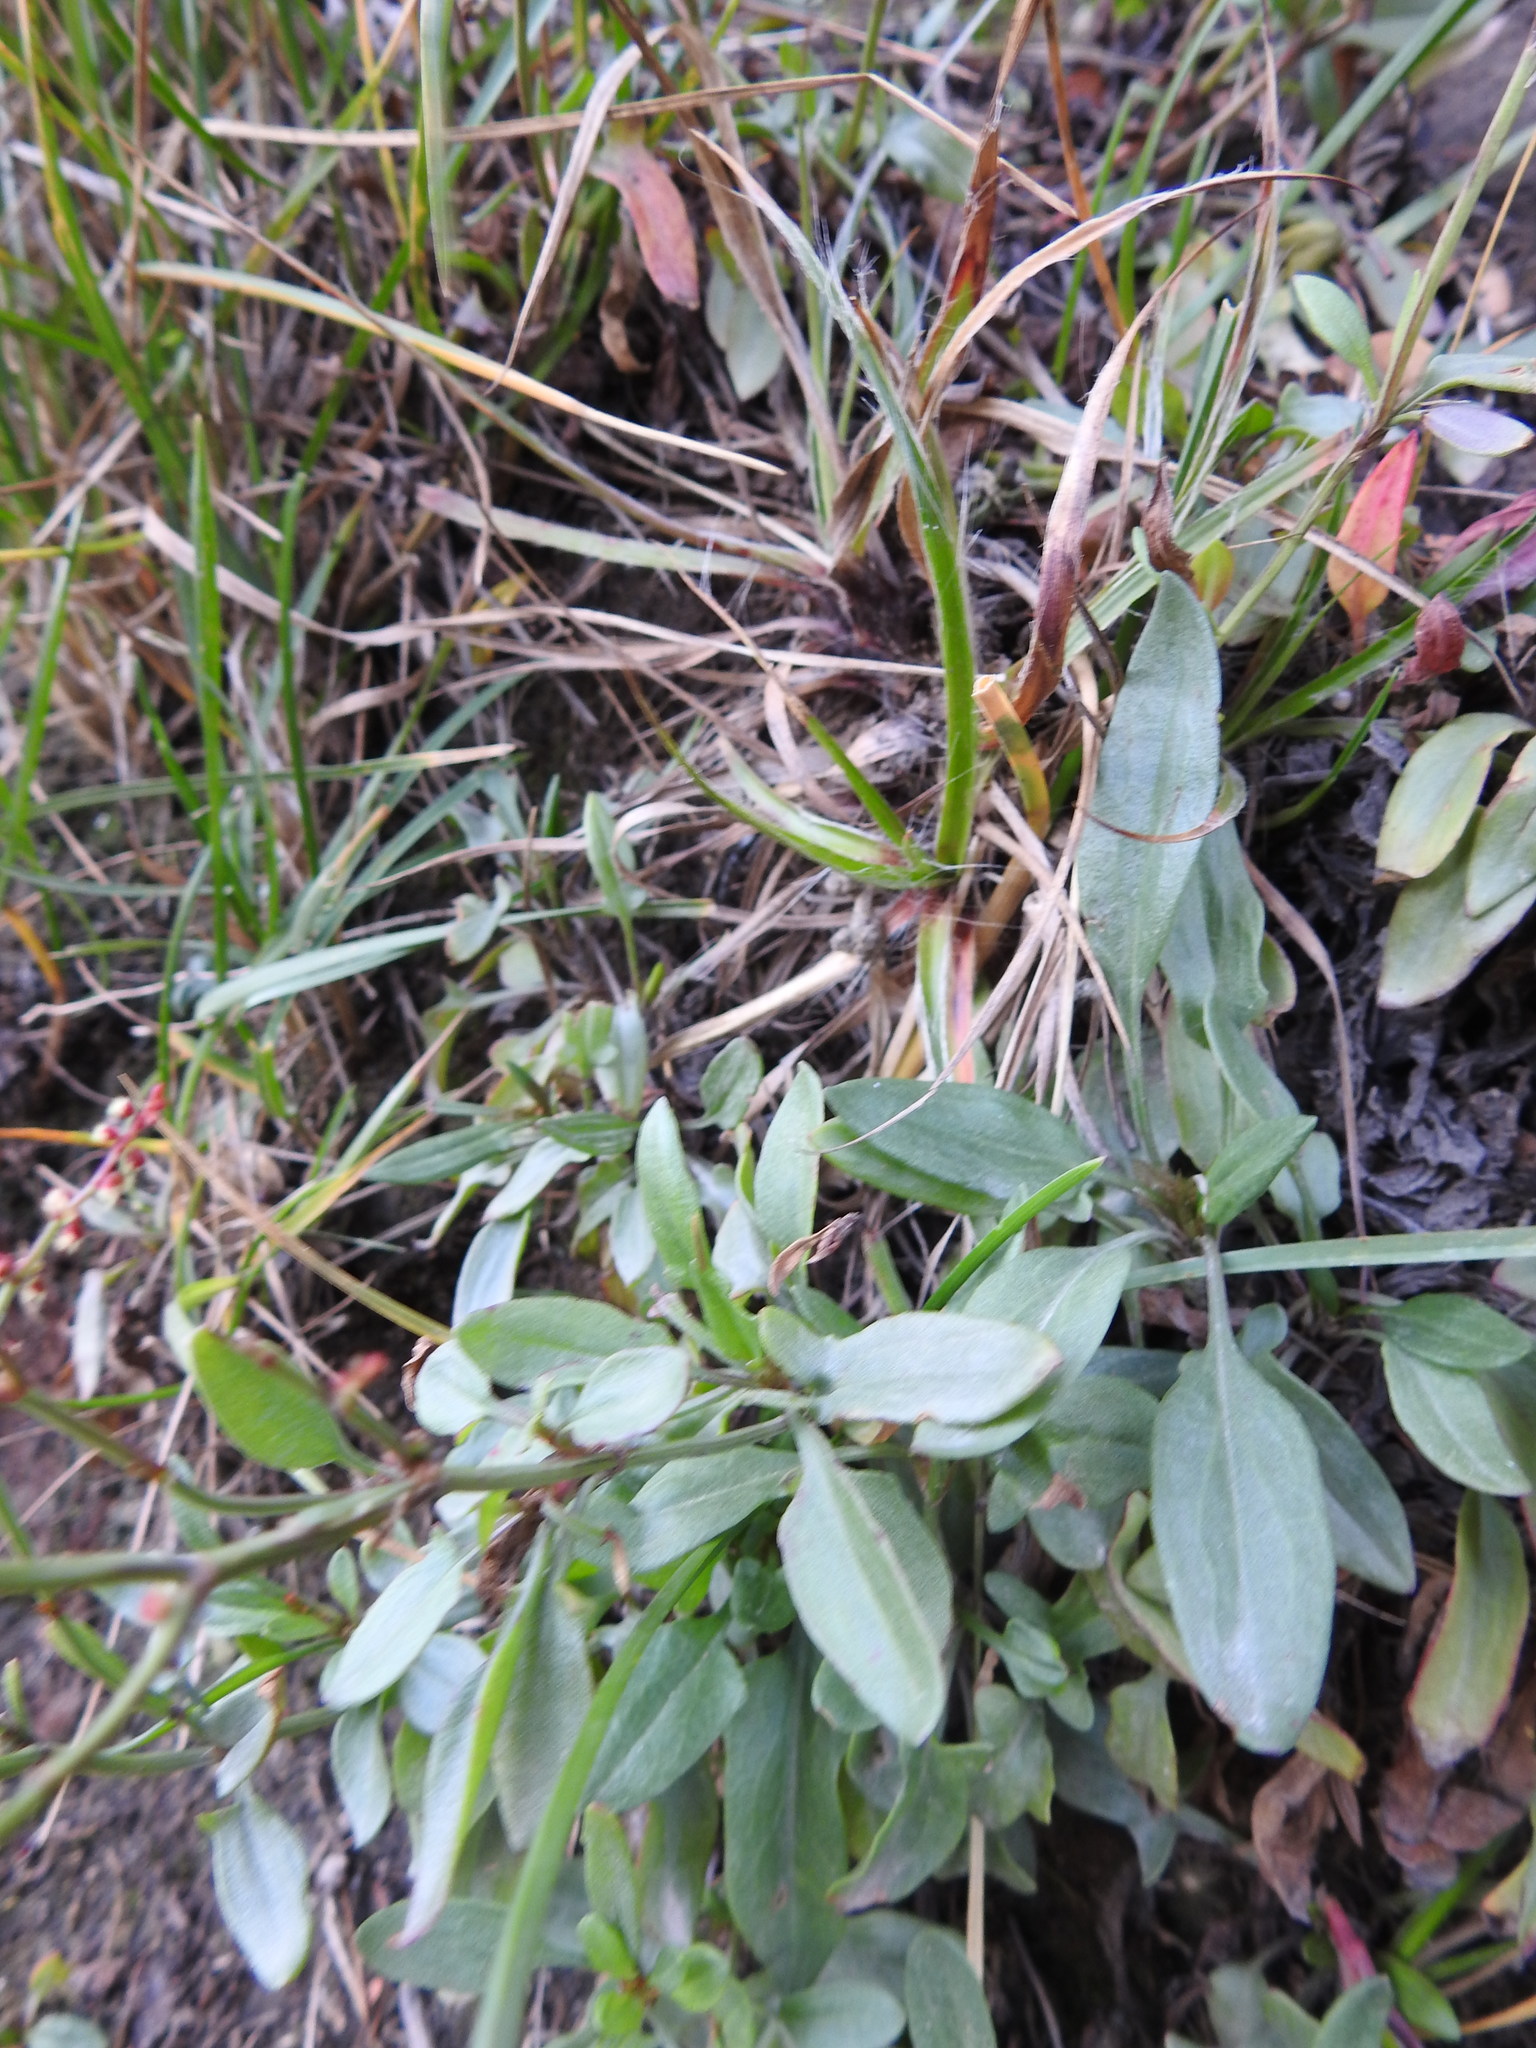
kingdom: Plantae
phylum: Tracheophyta
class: Magnoliopsida
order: Caryophyllales
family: Polygonaceae
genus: Rumex
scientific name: Rumex acetosella
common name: Common sheep sorrel
